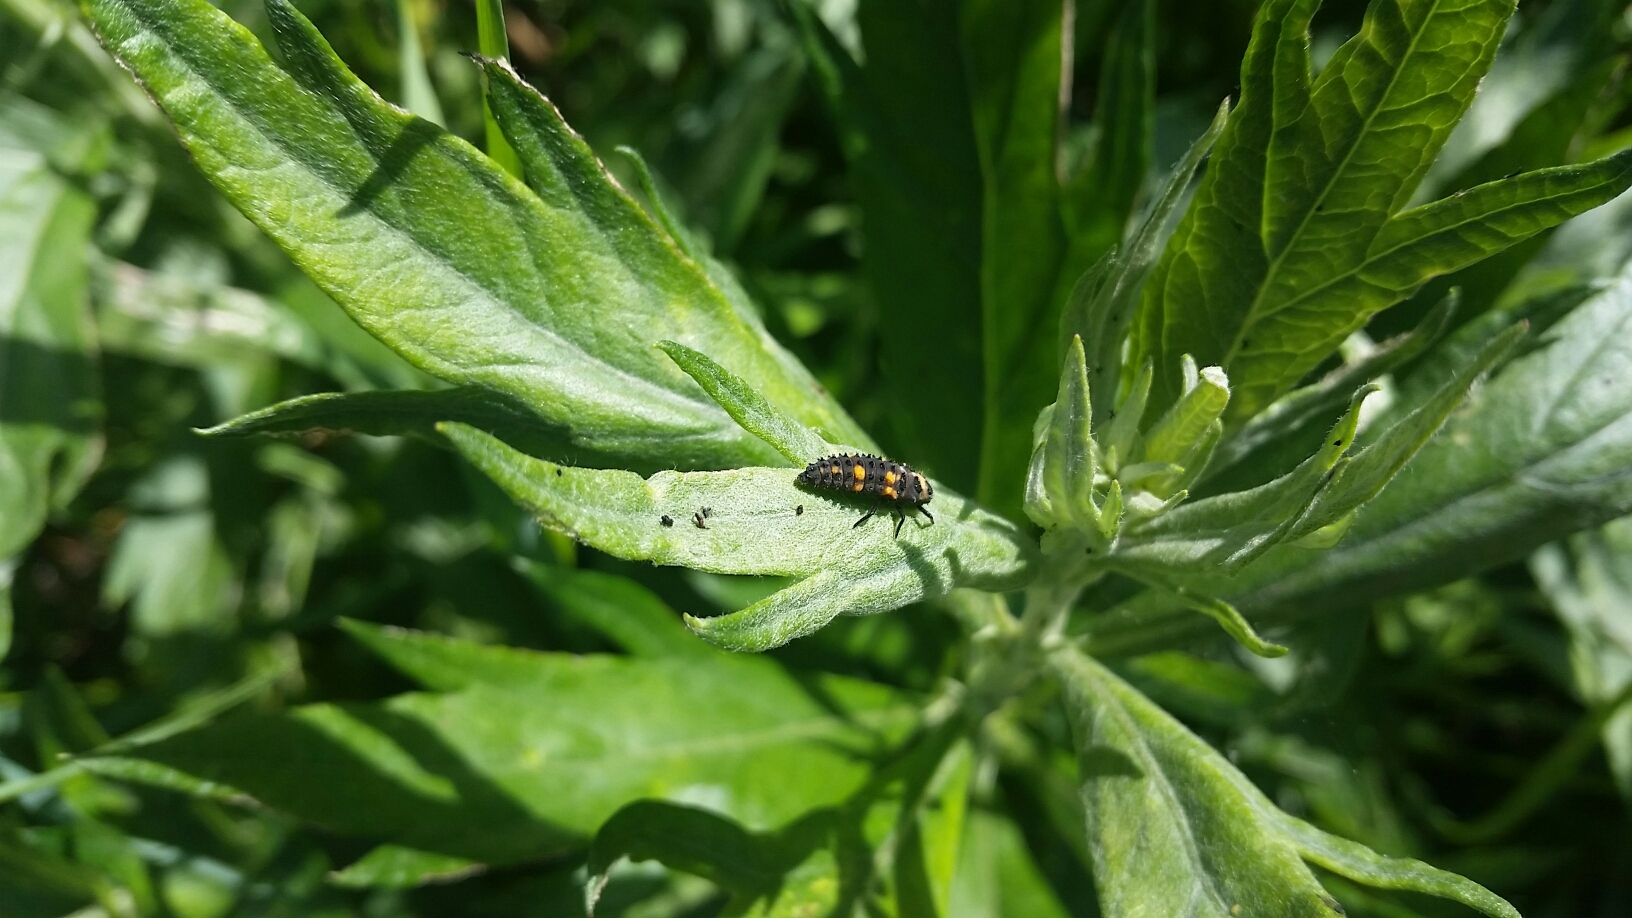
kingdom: Animalia
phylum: Arthropoda
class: Insecta
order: Coleoptera
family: Coccinellidae
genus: Hippodamia
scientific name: Hippodamia convergens
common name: Convergent lady beetle
